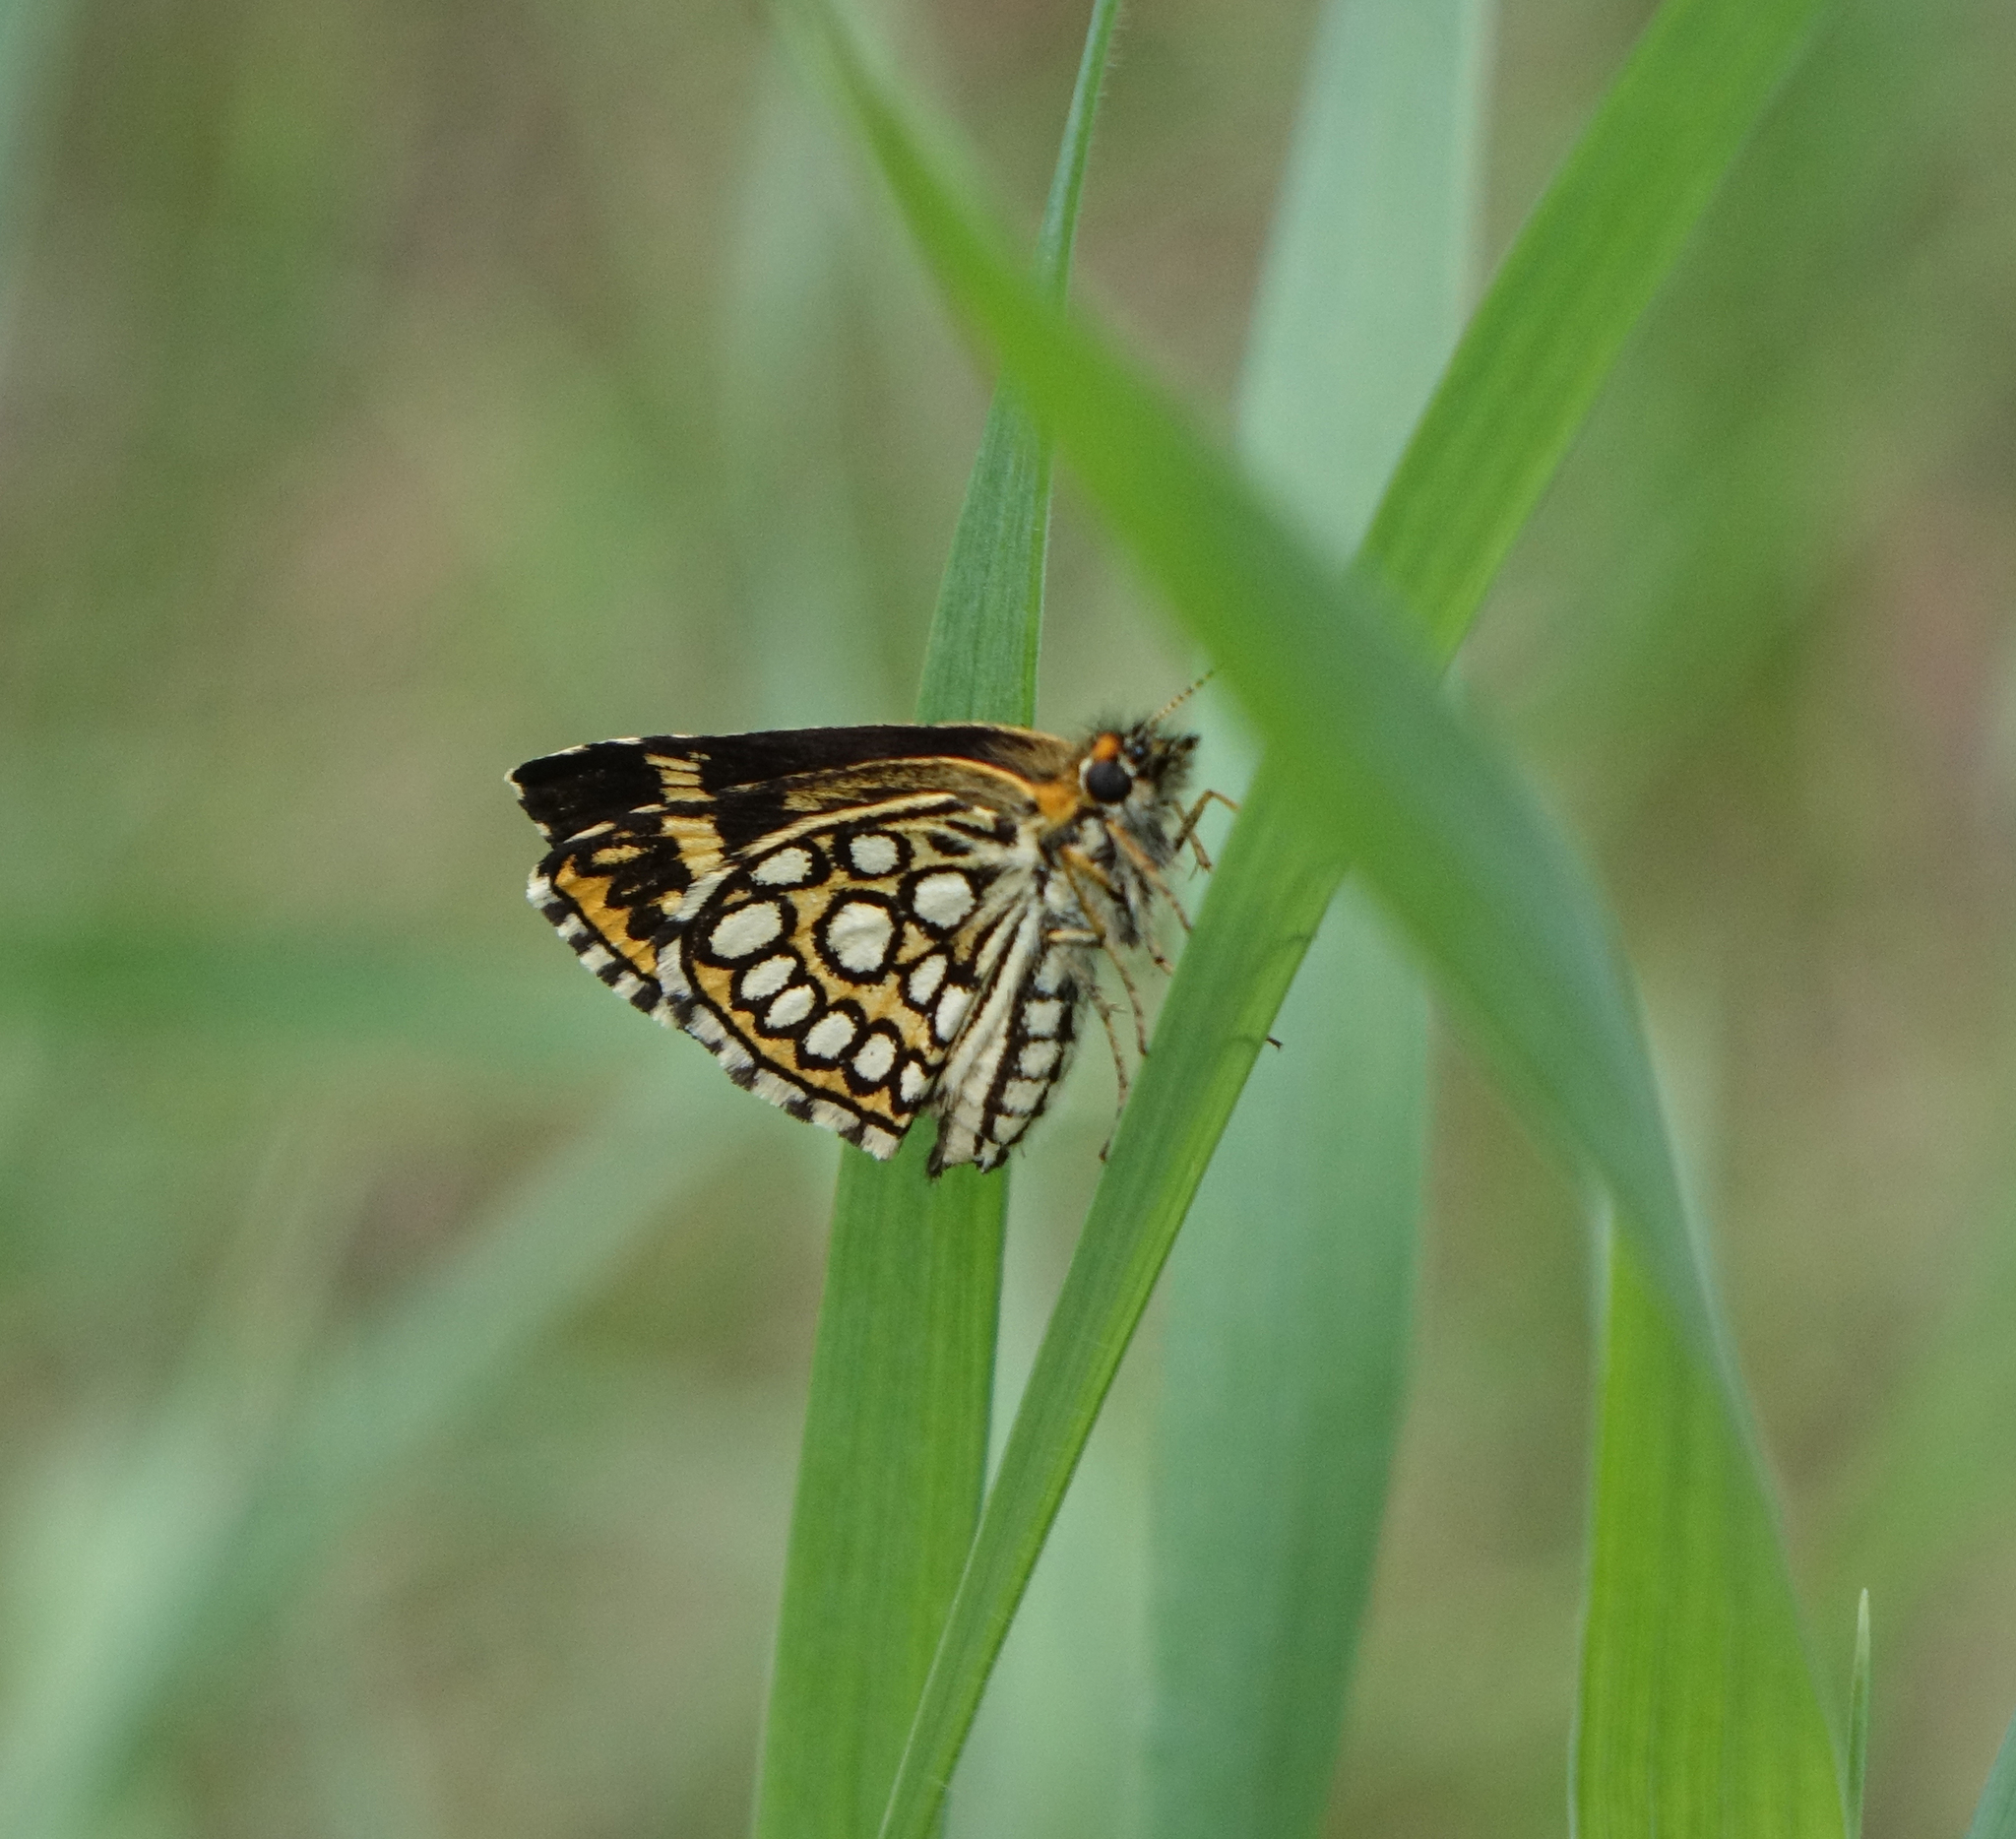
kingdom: Animalia
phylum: Arthropoda
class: Insecta
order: Lepidoptera
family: Hesperiidae
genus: Heteropterus
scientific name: Heteropterus morpheus
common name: Large chequered skipper
